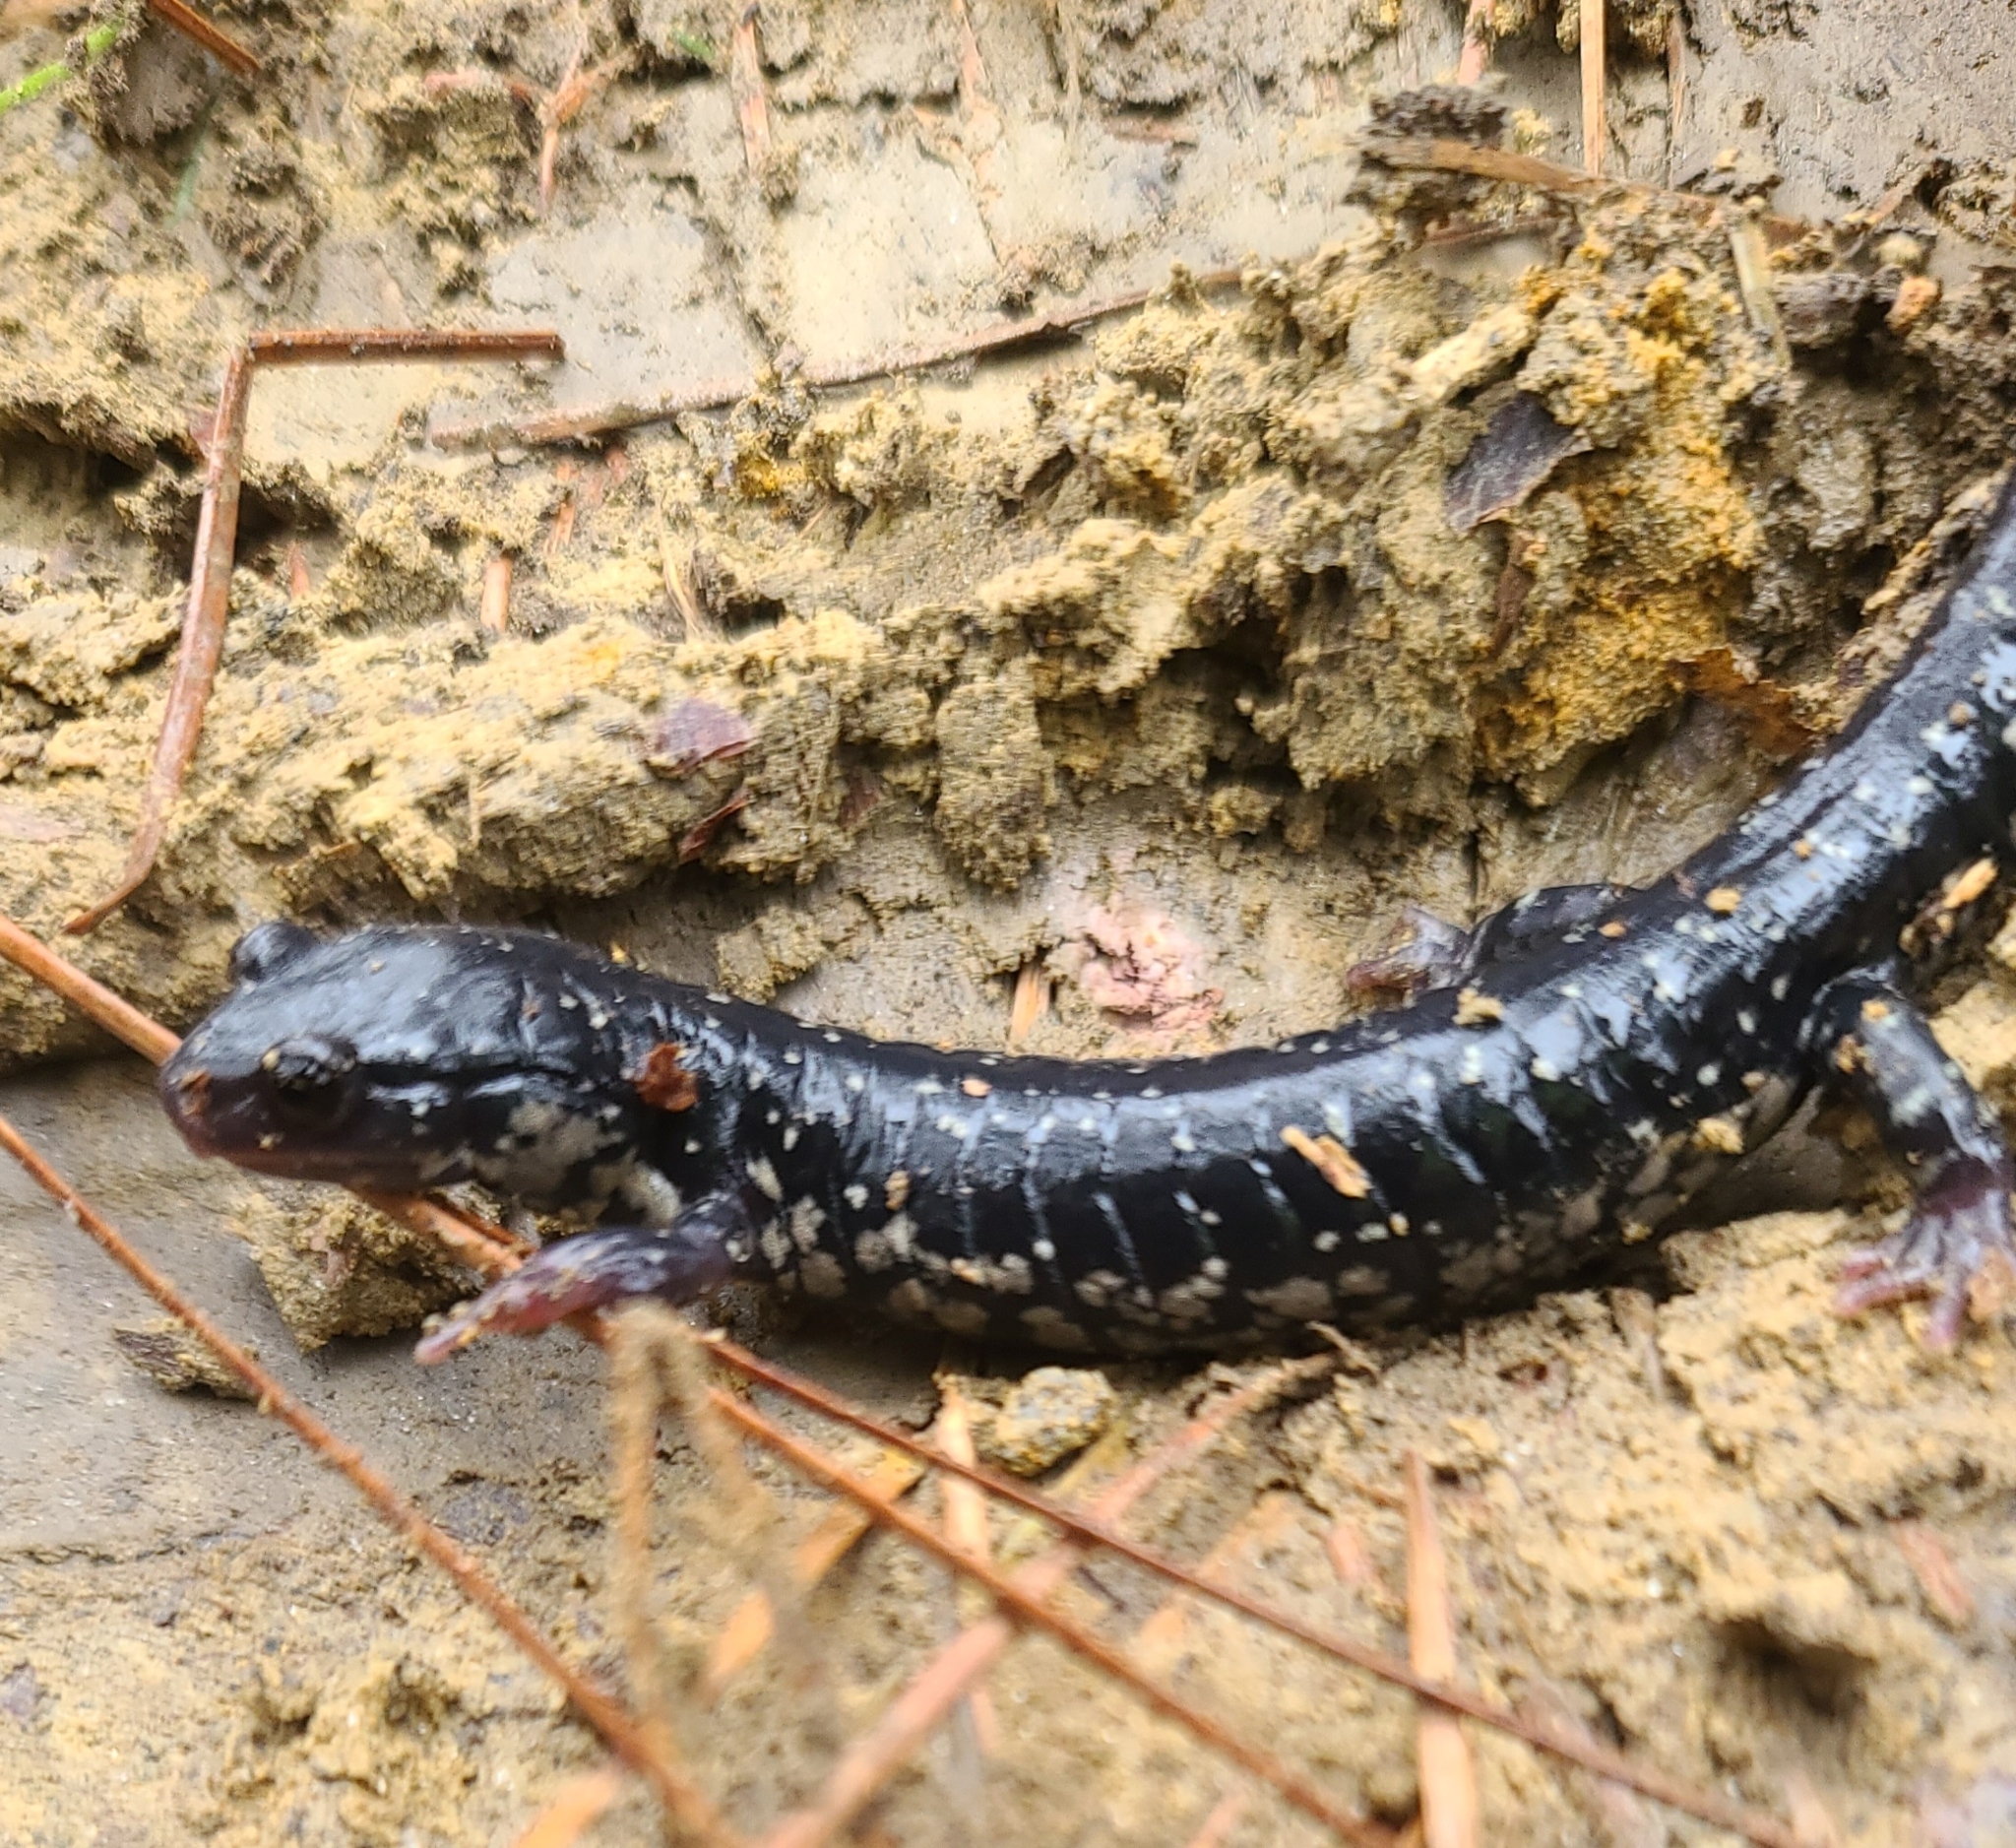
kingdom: Animalia
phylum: Chordata
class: Amphibia
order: Caudata
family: Plethodontidae
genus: Plethodon
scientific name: Plethodon glutinosus
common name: Northern slimy salamander
